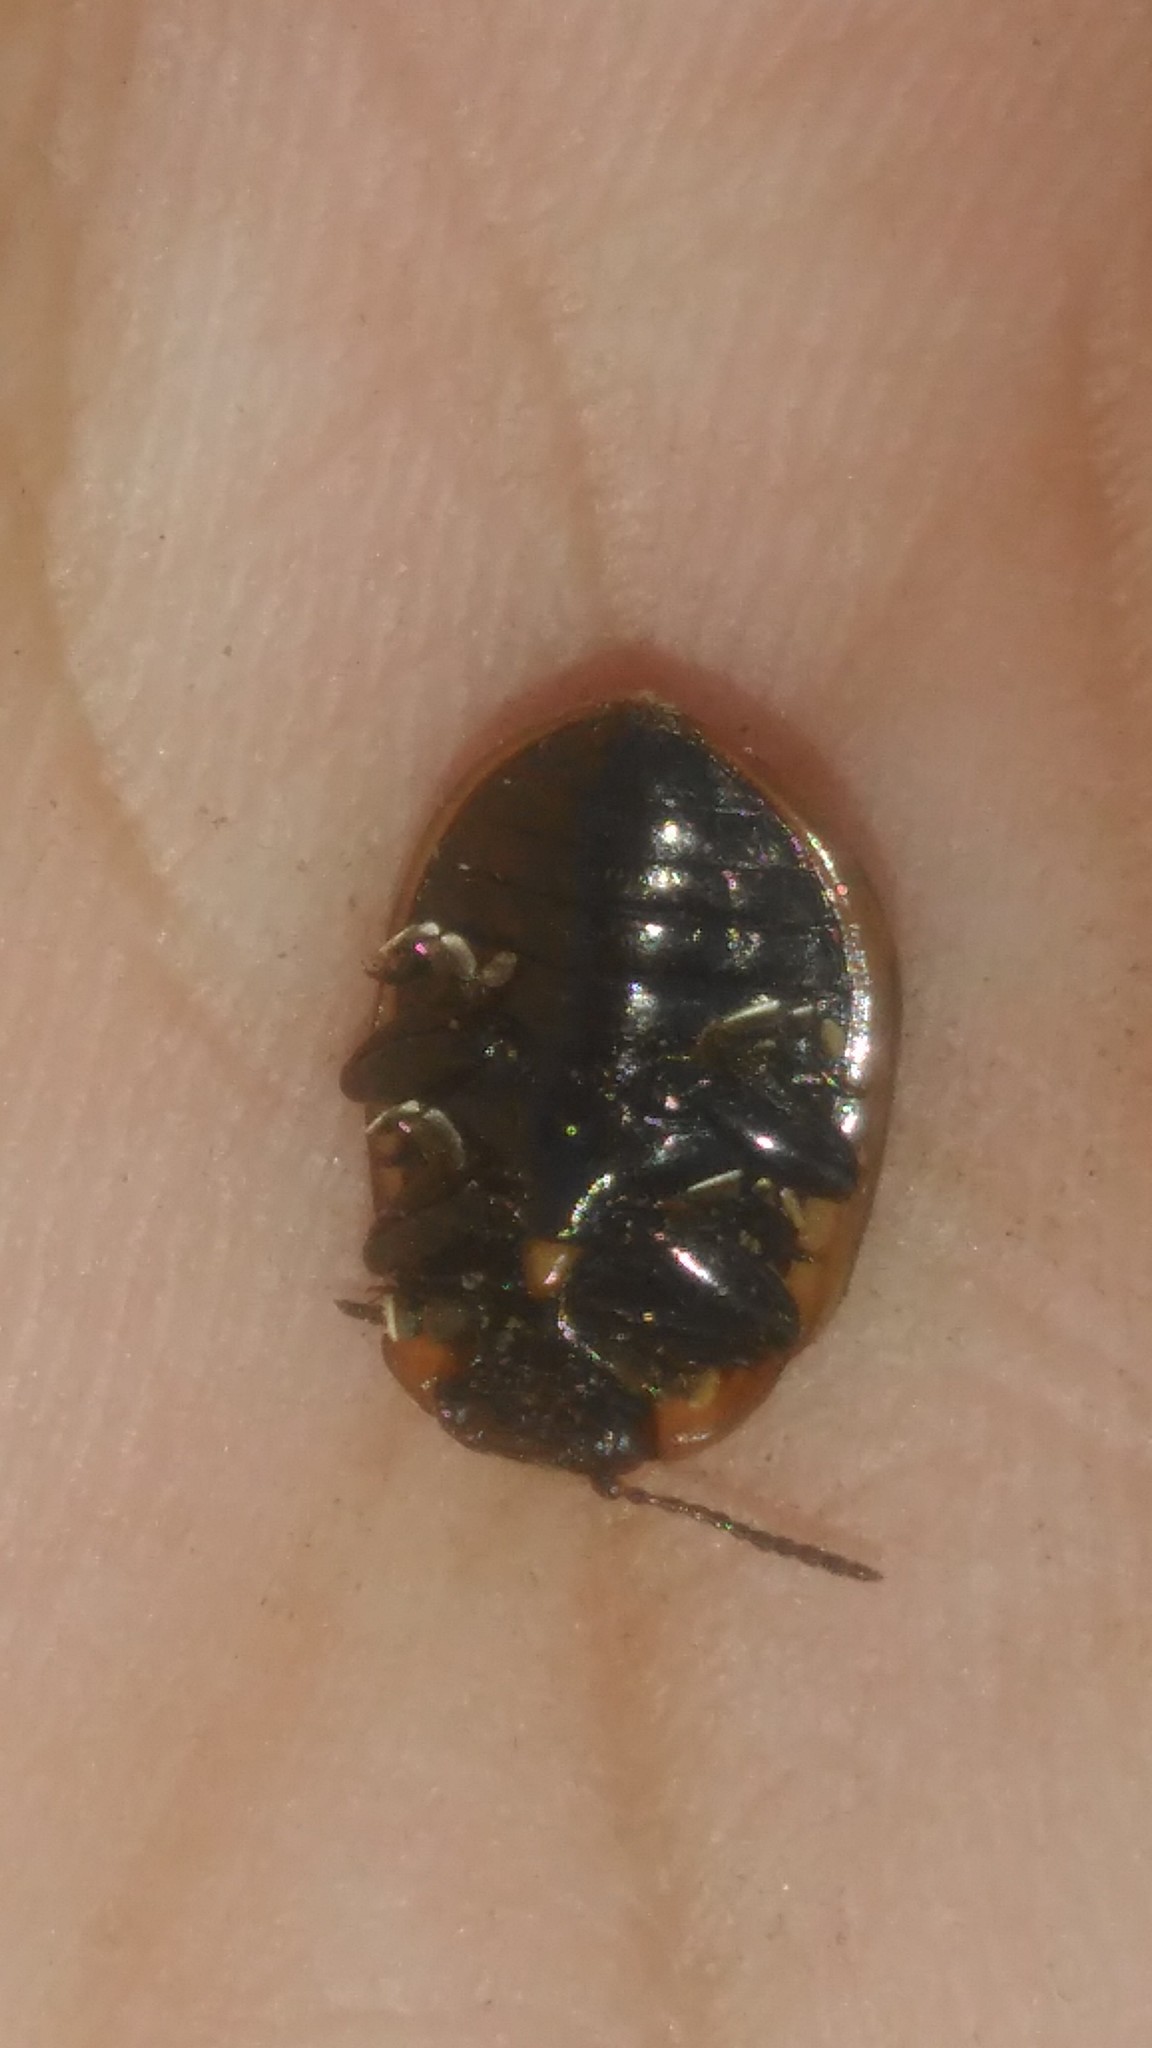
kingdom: Animalia
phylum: Arthropoda
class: Insecta
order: Coleoptera
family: Chrysomelidae
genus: Platyphora
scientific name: Platyphora
